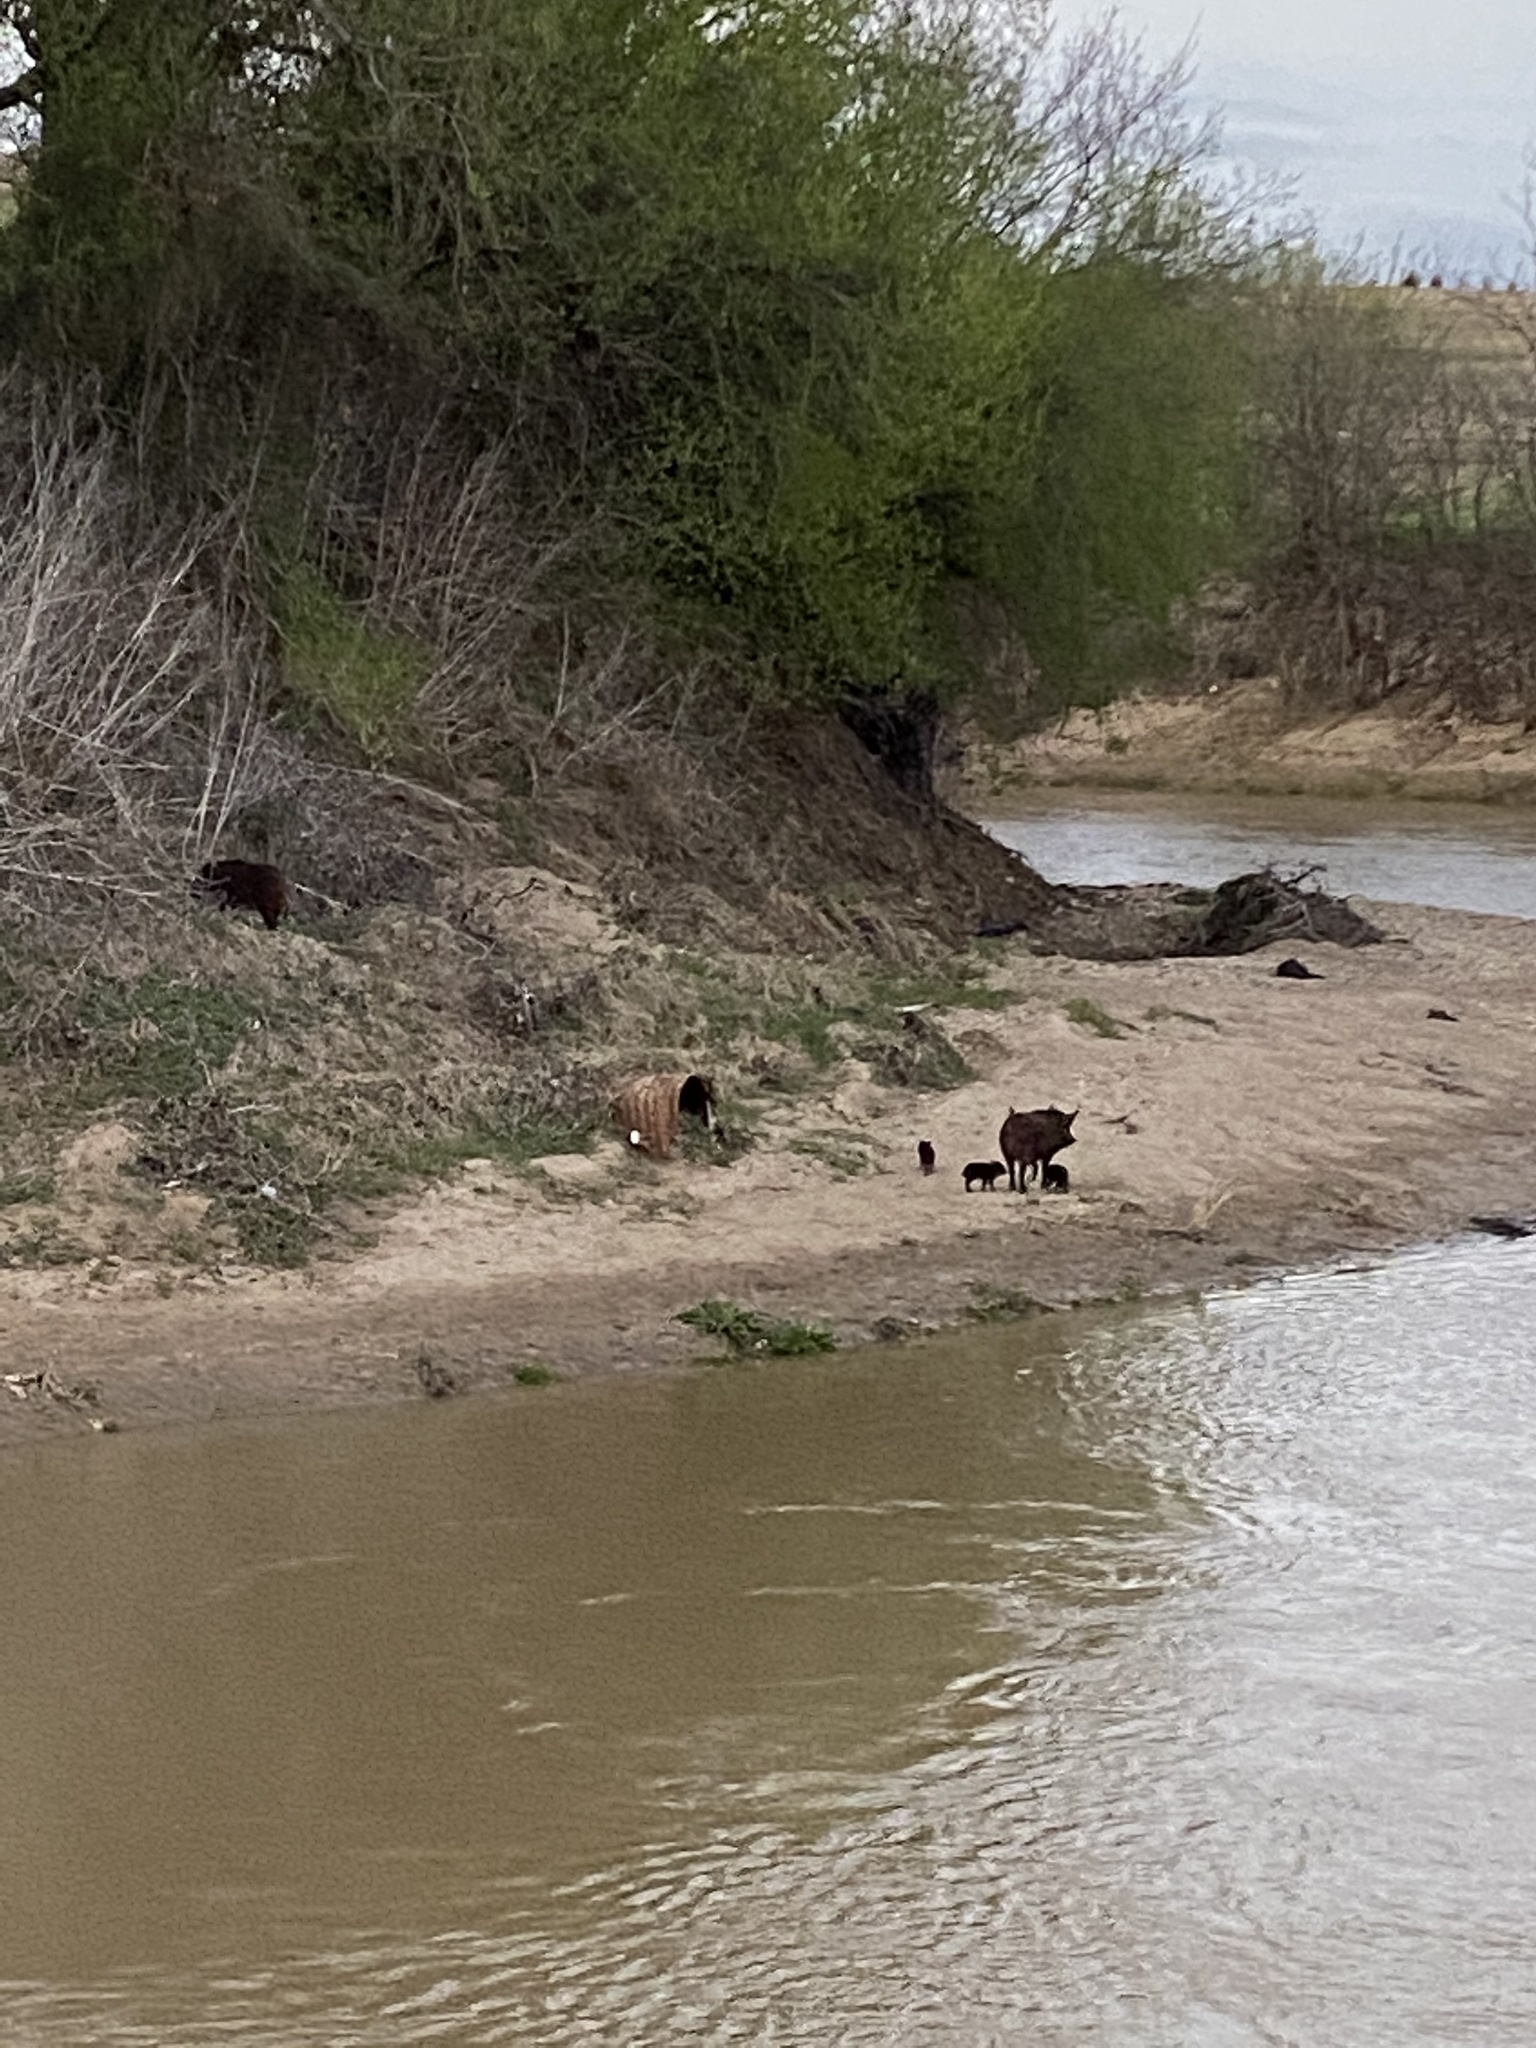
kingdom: Animalia
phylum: Chordata
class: Mammalia
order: Artiodactyla
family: Suidae
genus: Sus
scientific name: Sus scrofa
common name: Wild boar
